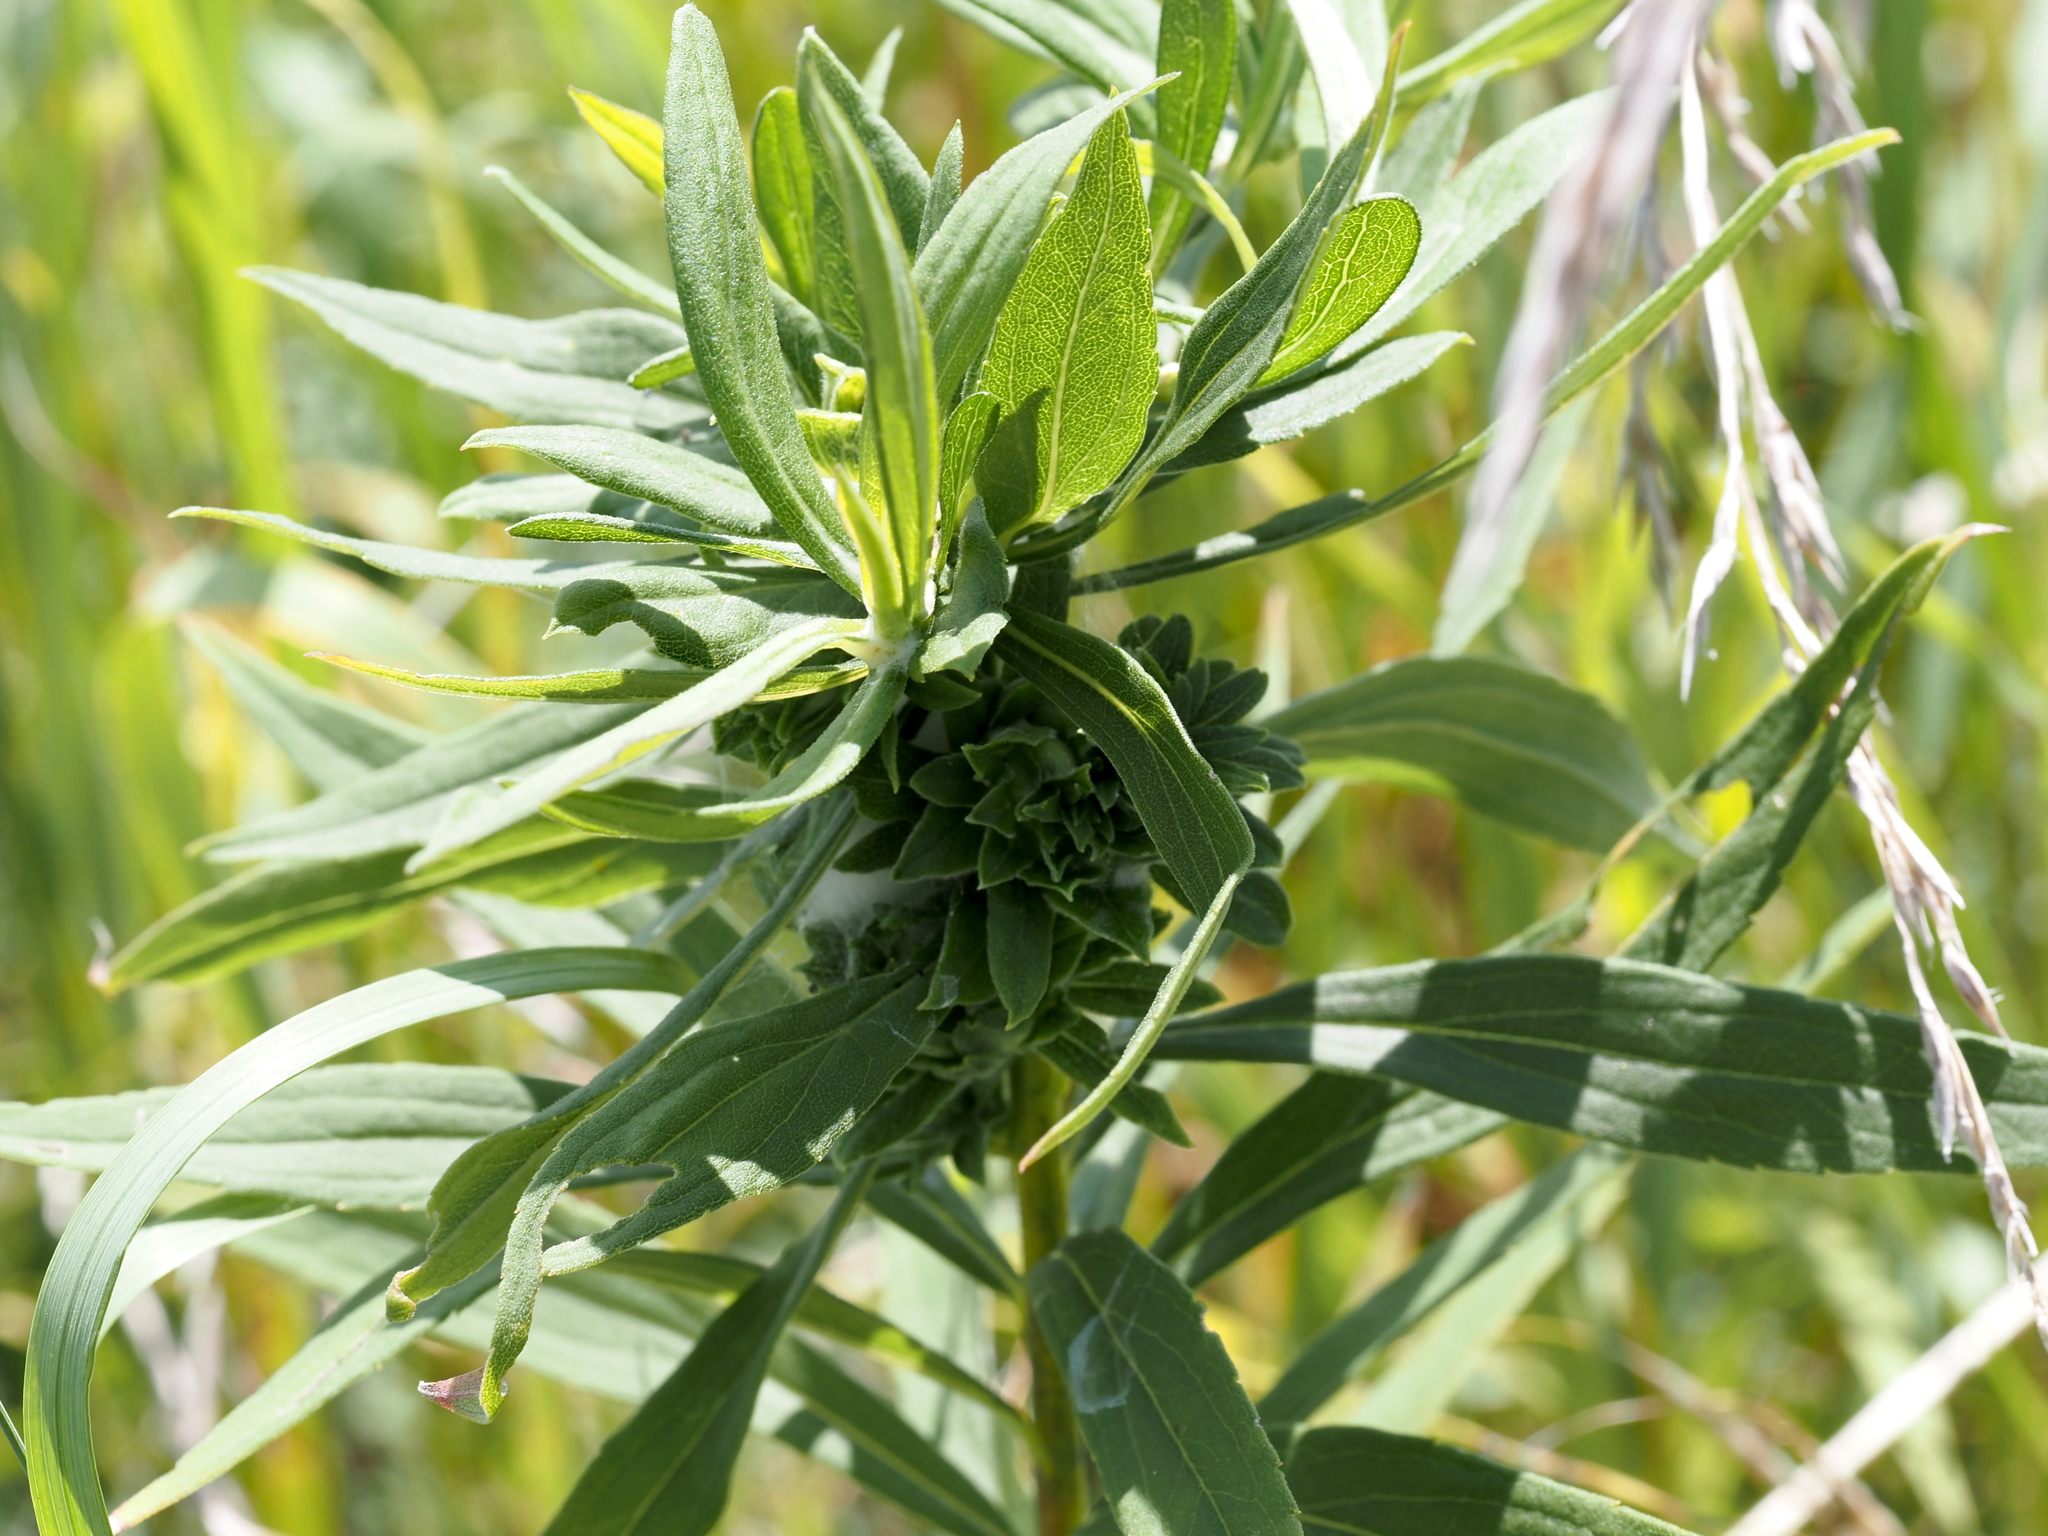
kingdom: Animalia
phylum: Arthropoda
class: Insecta
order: Diptera
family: Tephritidae
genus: Procecidochares
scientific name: Procecidochares atra
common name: Goldenrod brussels sprout gall fly
